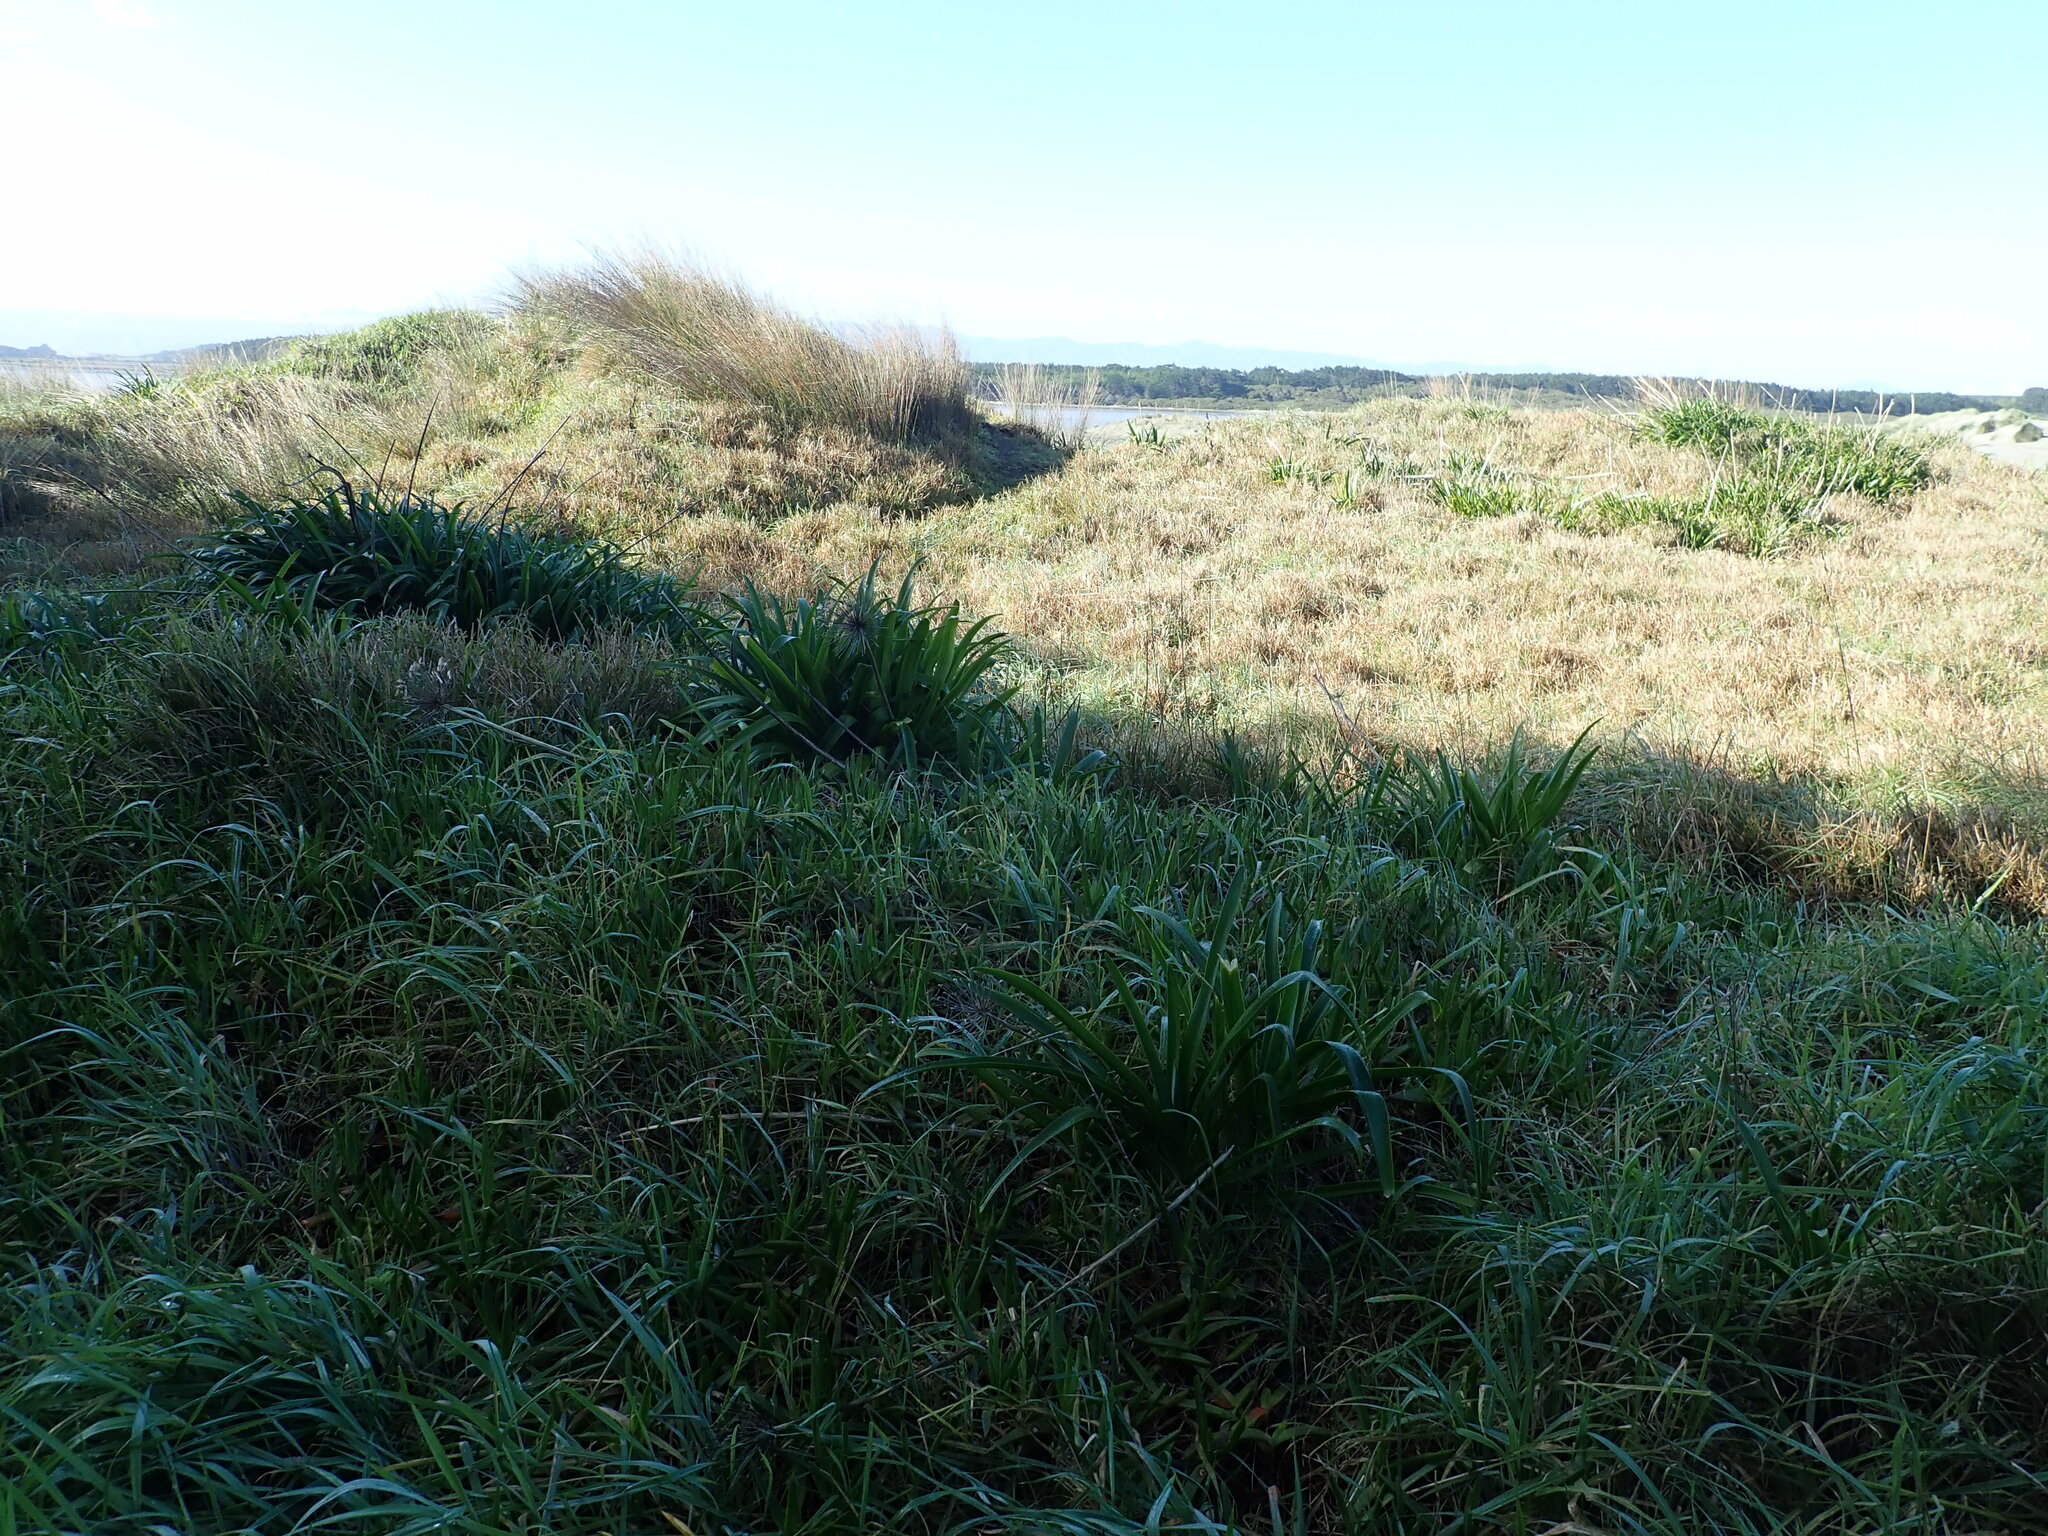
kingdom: Plantae
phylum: Tracheophyta
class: Liliopsida
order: Asparagales
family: Amaryllidaceae
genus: Agapanthus
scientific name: Agapanthus praecox
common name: African-lily
